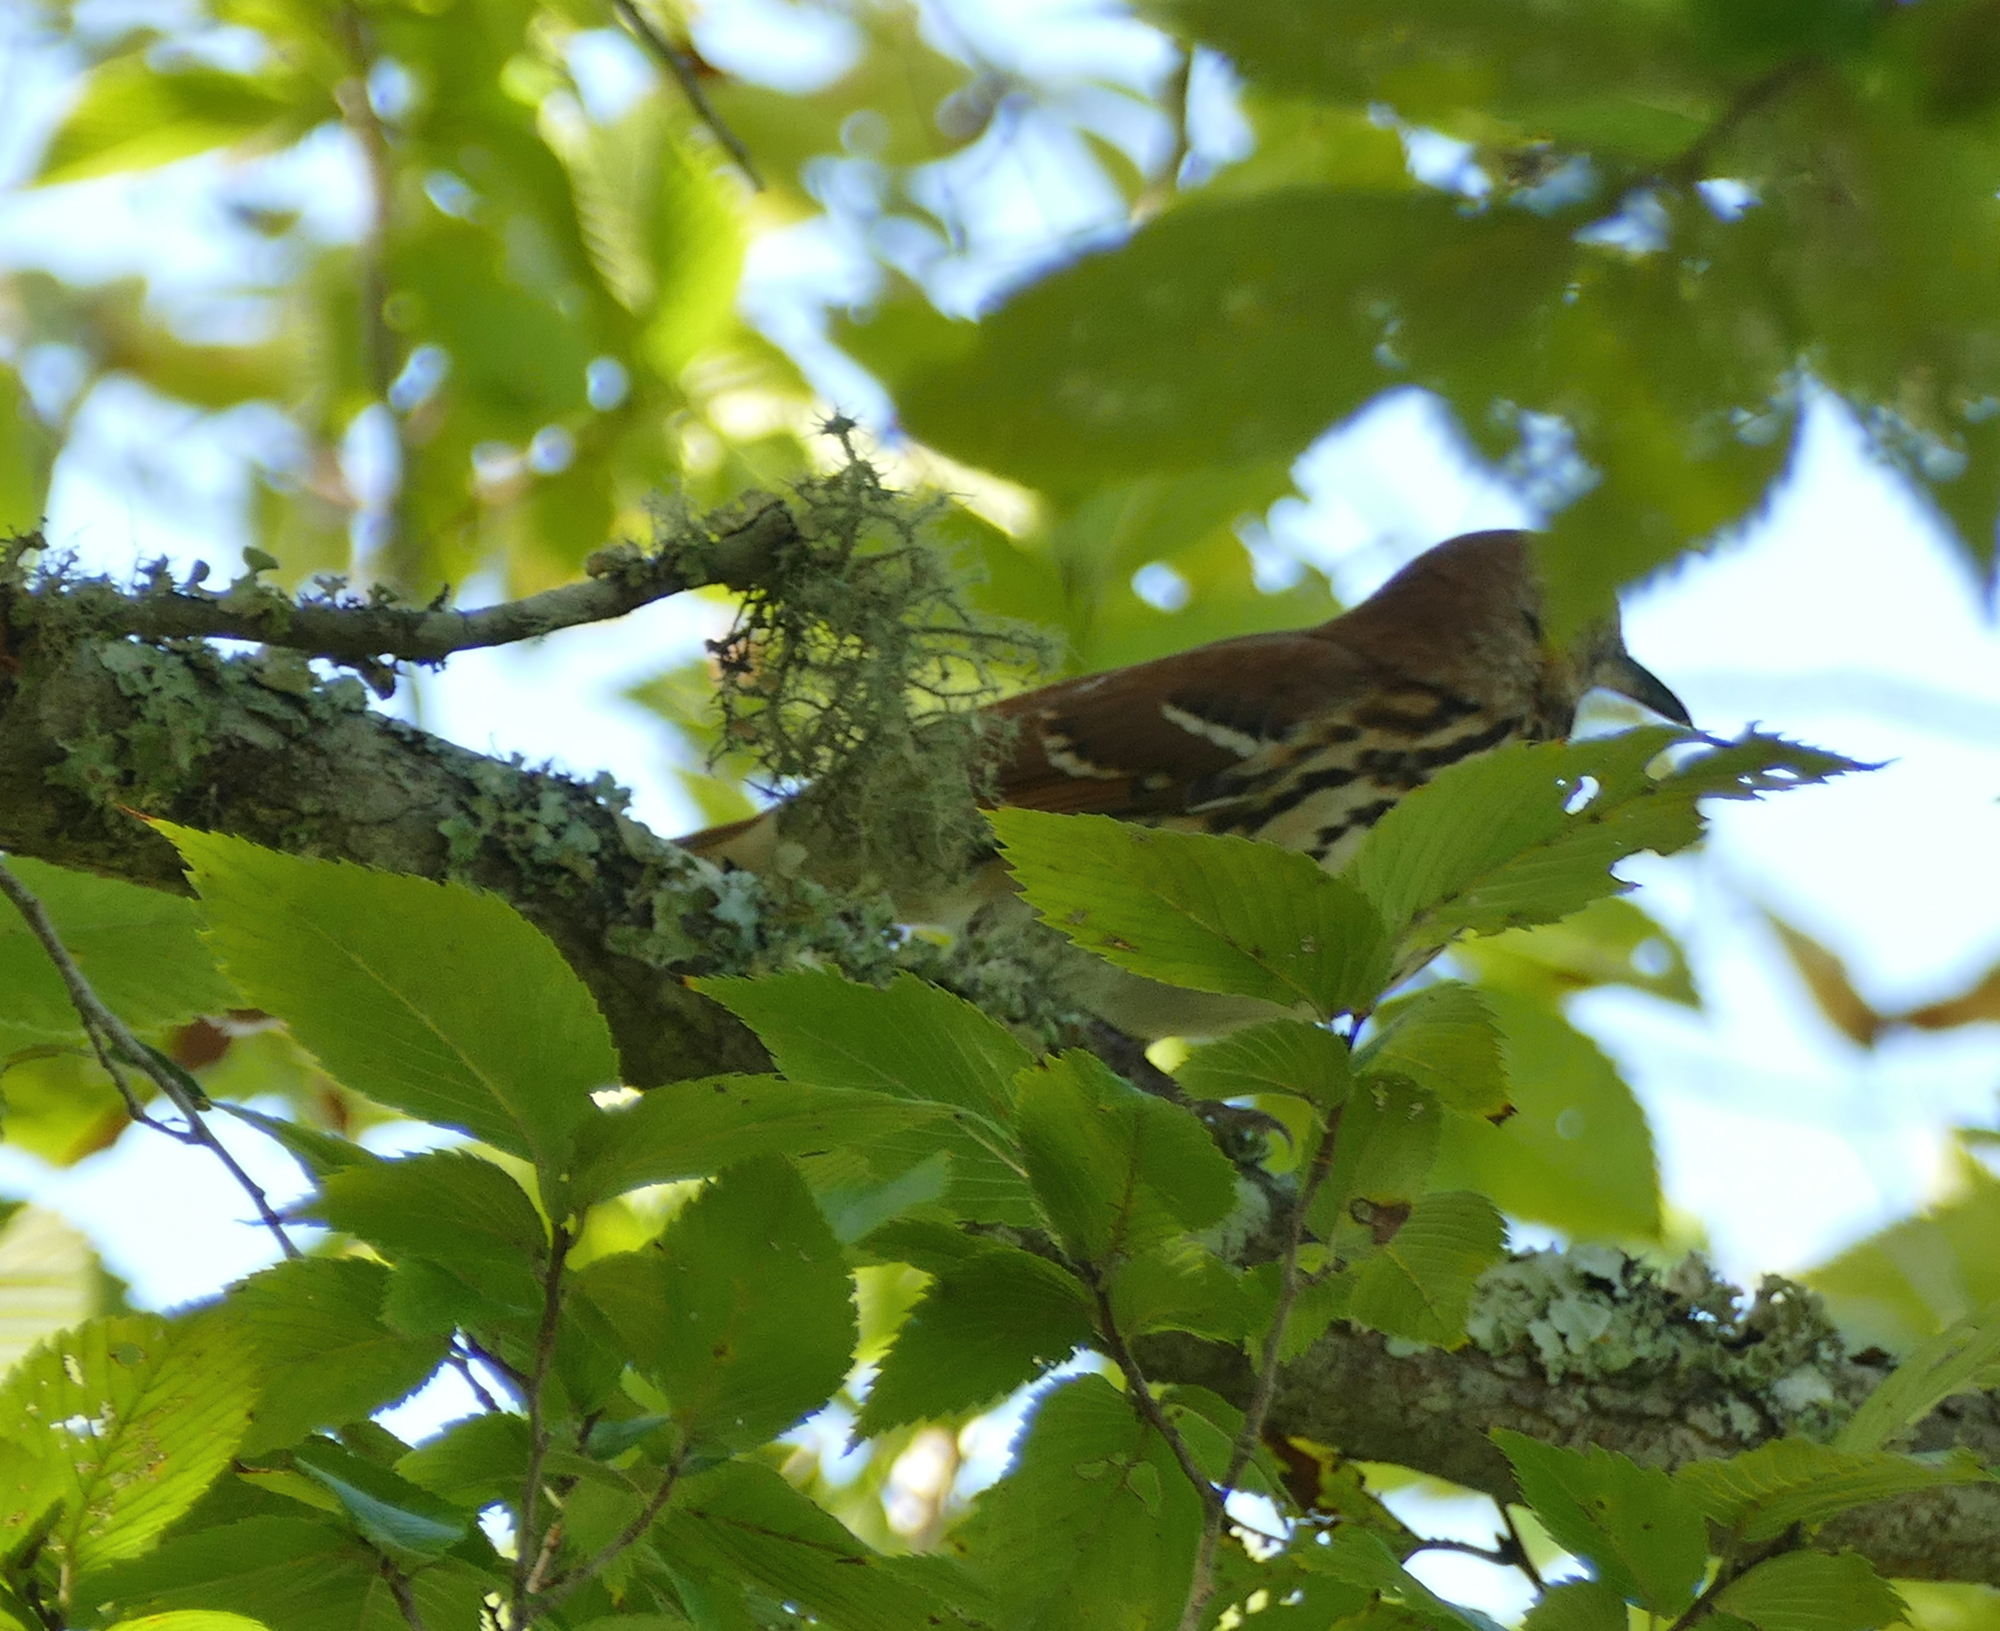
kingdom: Animalia
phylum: Chordata
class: Aves
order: Passeriformes
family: Mimidae
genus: Toxostoma
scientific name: Toxostoma rufum
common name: Brown thrasher
